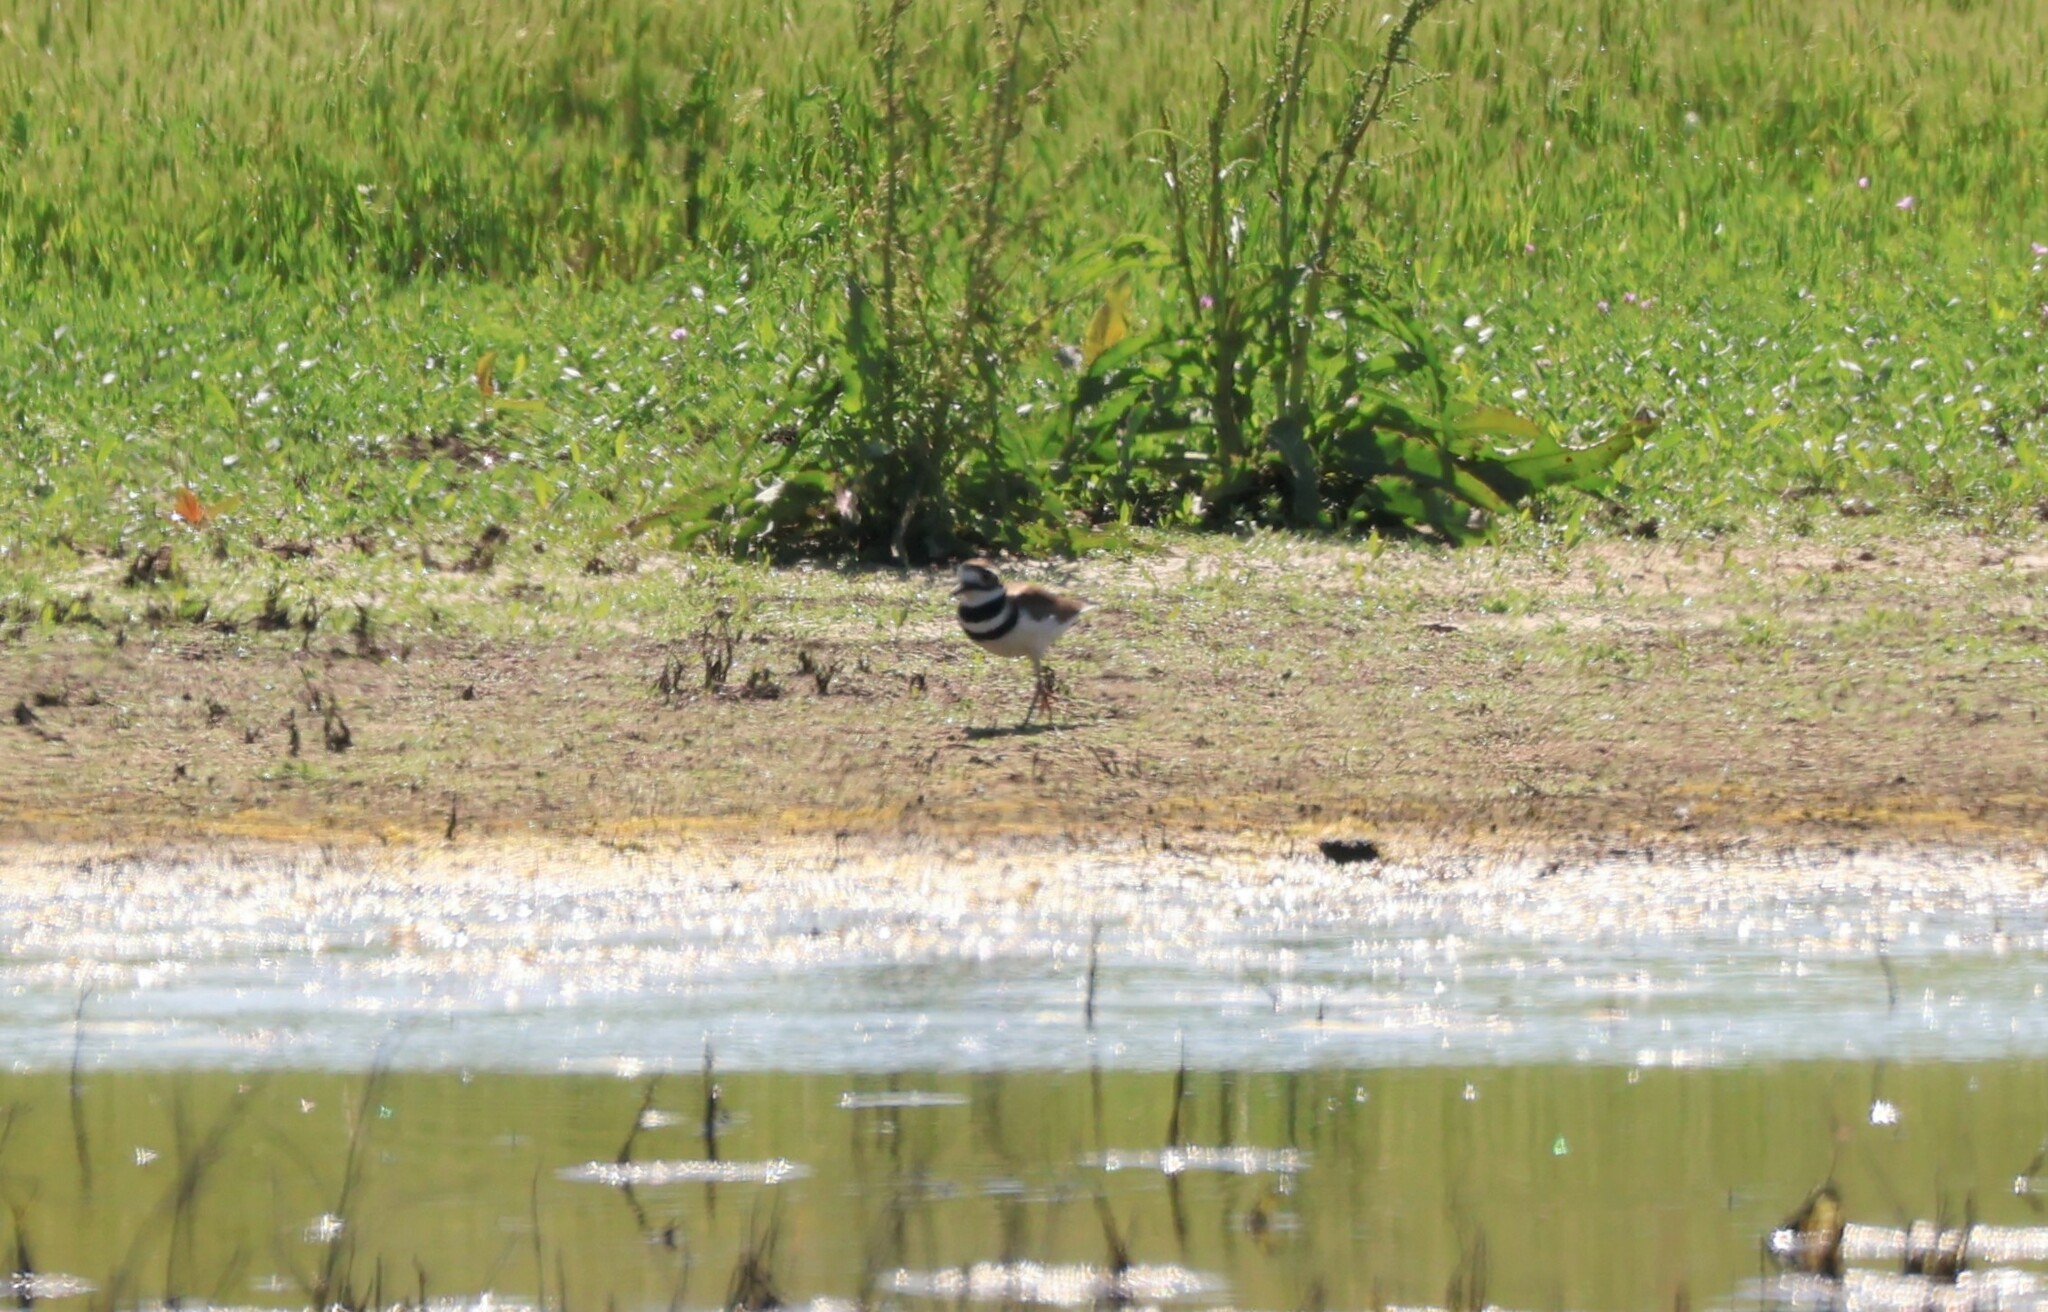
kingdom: Animalia
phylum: Chordata
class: Aves
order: Charadriiformes
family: Charadriidae
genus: Charadrius
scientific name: Charadrius vociferus
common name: Killdeer
